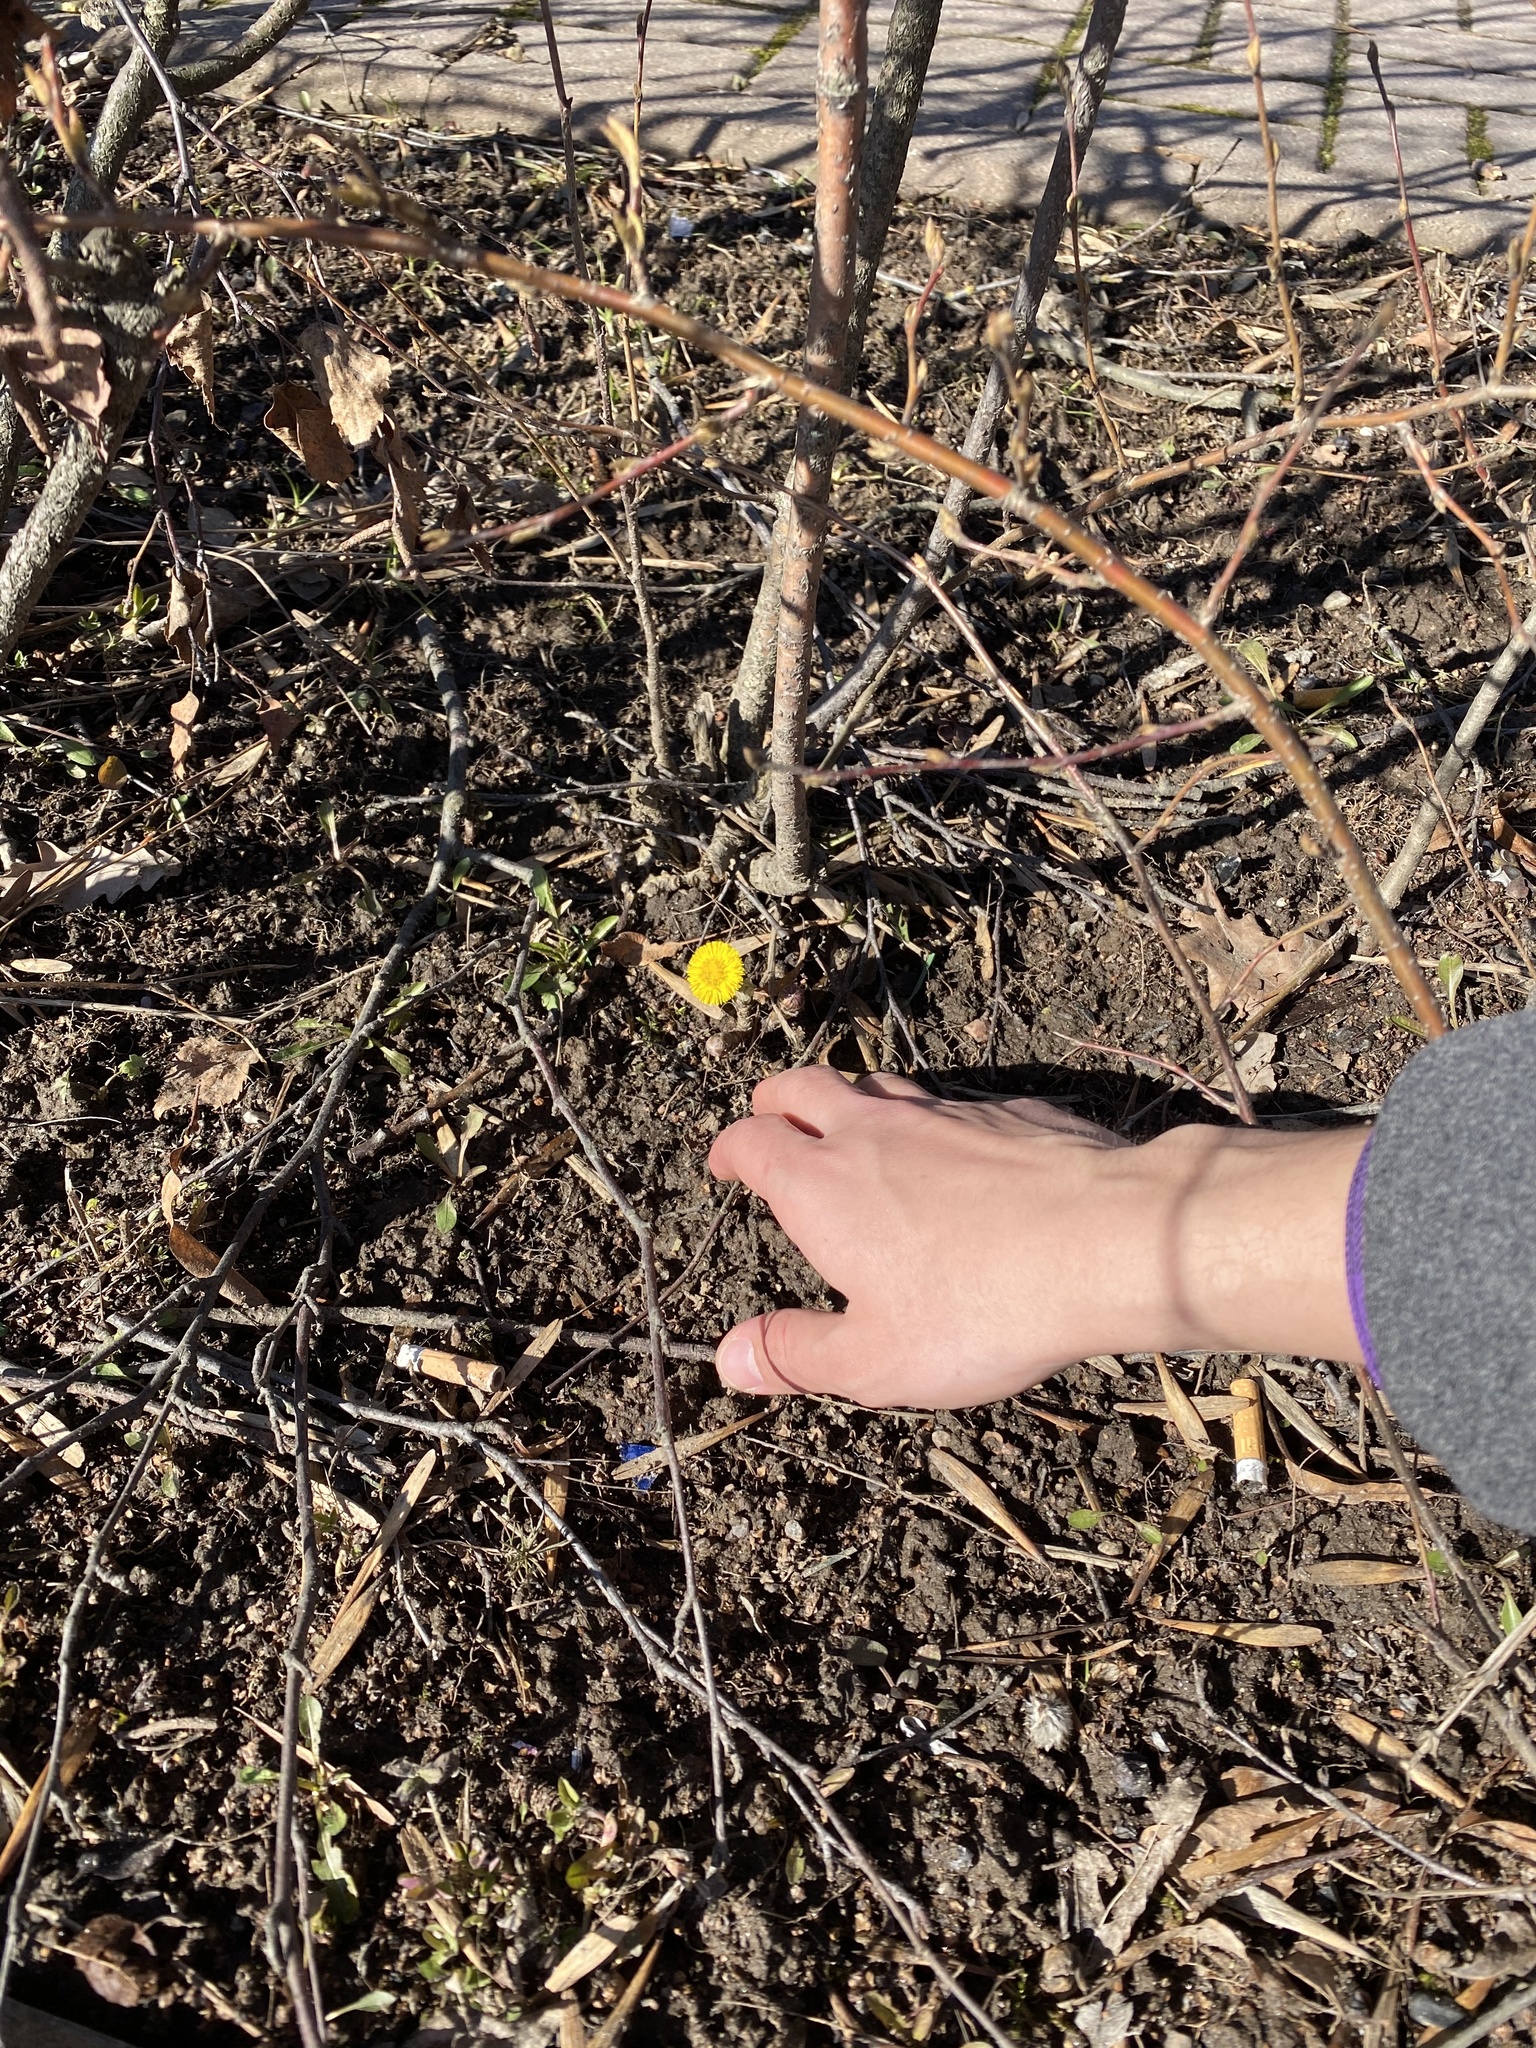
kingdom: Plantae
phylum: Tracheophyta
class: Magnoliopsida
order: Asterales
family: Asteraceae
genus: Tussilago
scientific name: Tussilago farfara
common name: Coltsfoot
